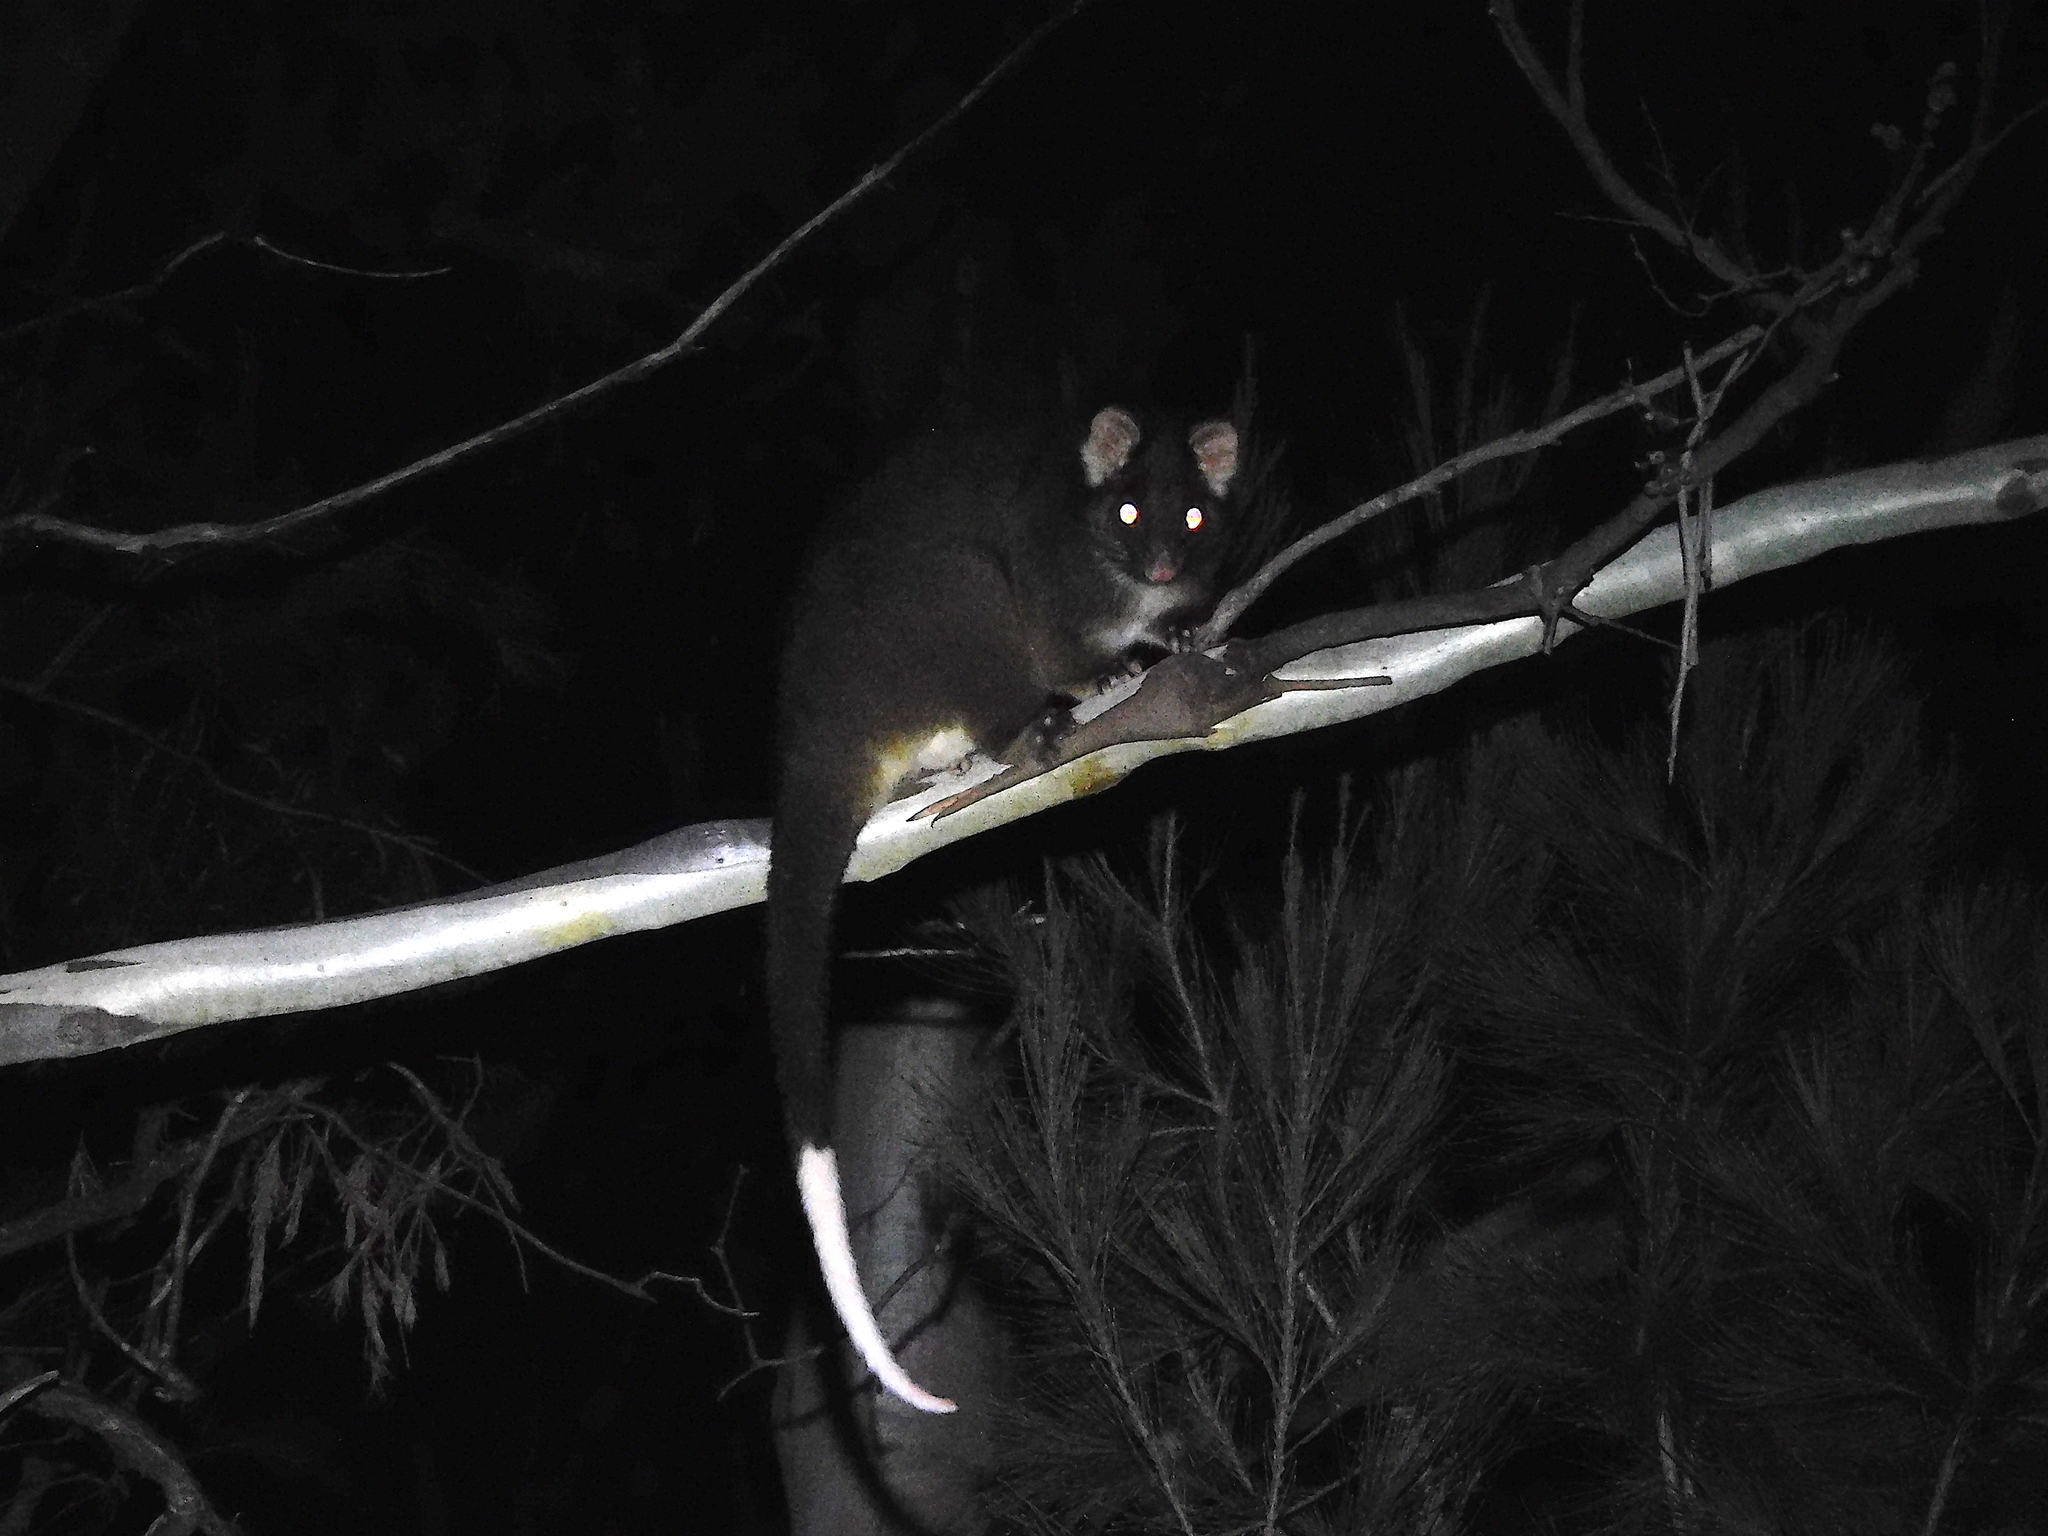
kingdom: Animalia
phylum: Chordata
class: Mammalia
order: Diprotodontia
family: Pseudocheiridae
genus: Pseudocheirus
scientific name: Pseudocheirus peregrinus
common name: Common ringtail possum
